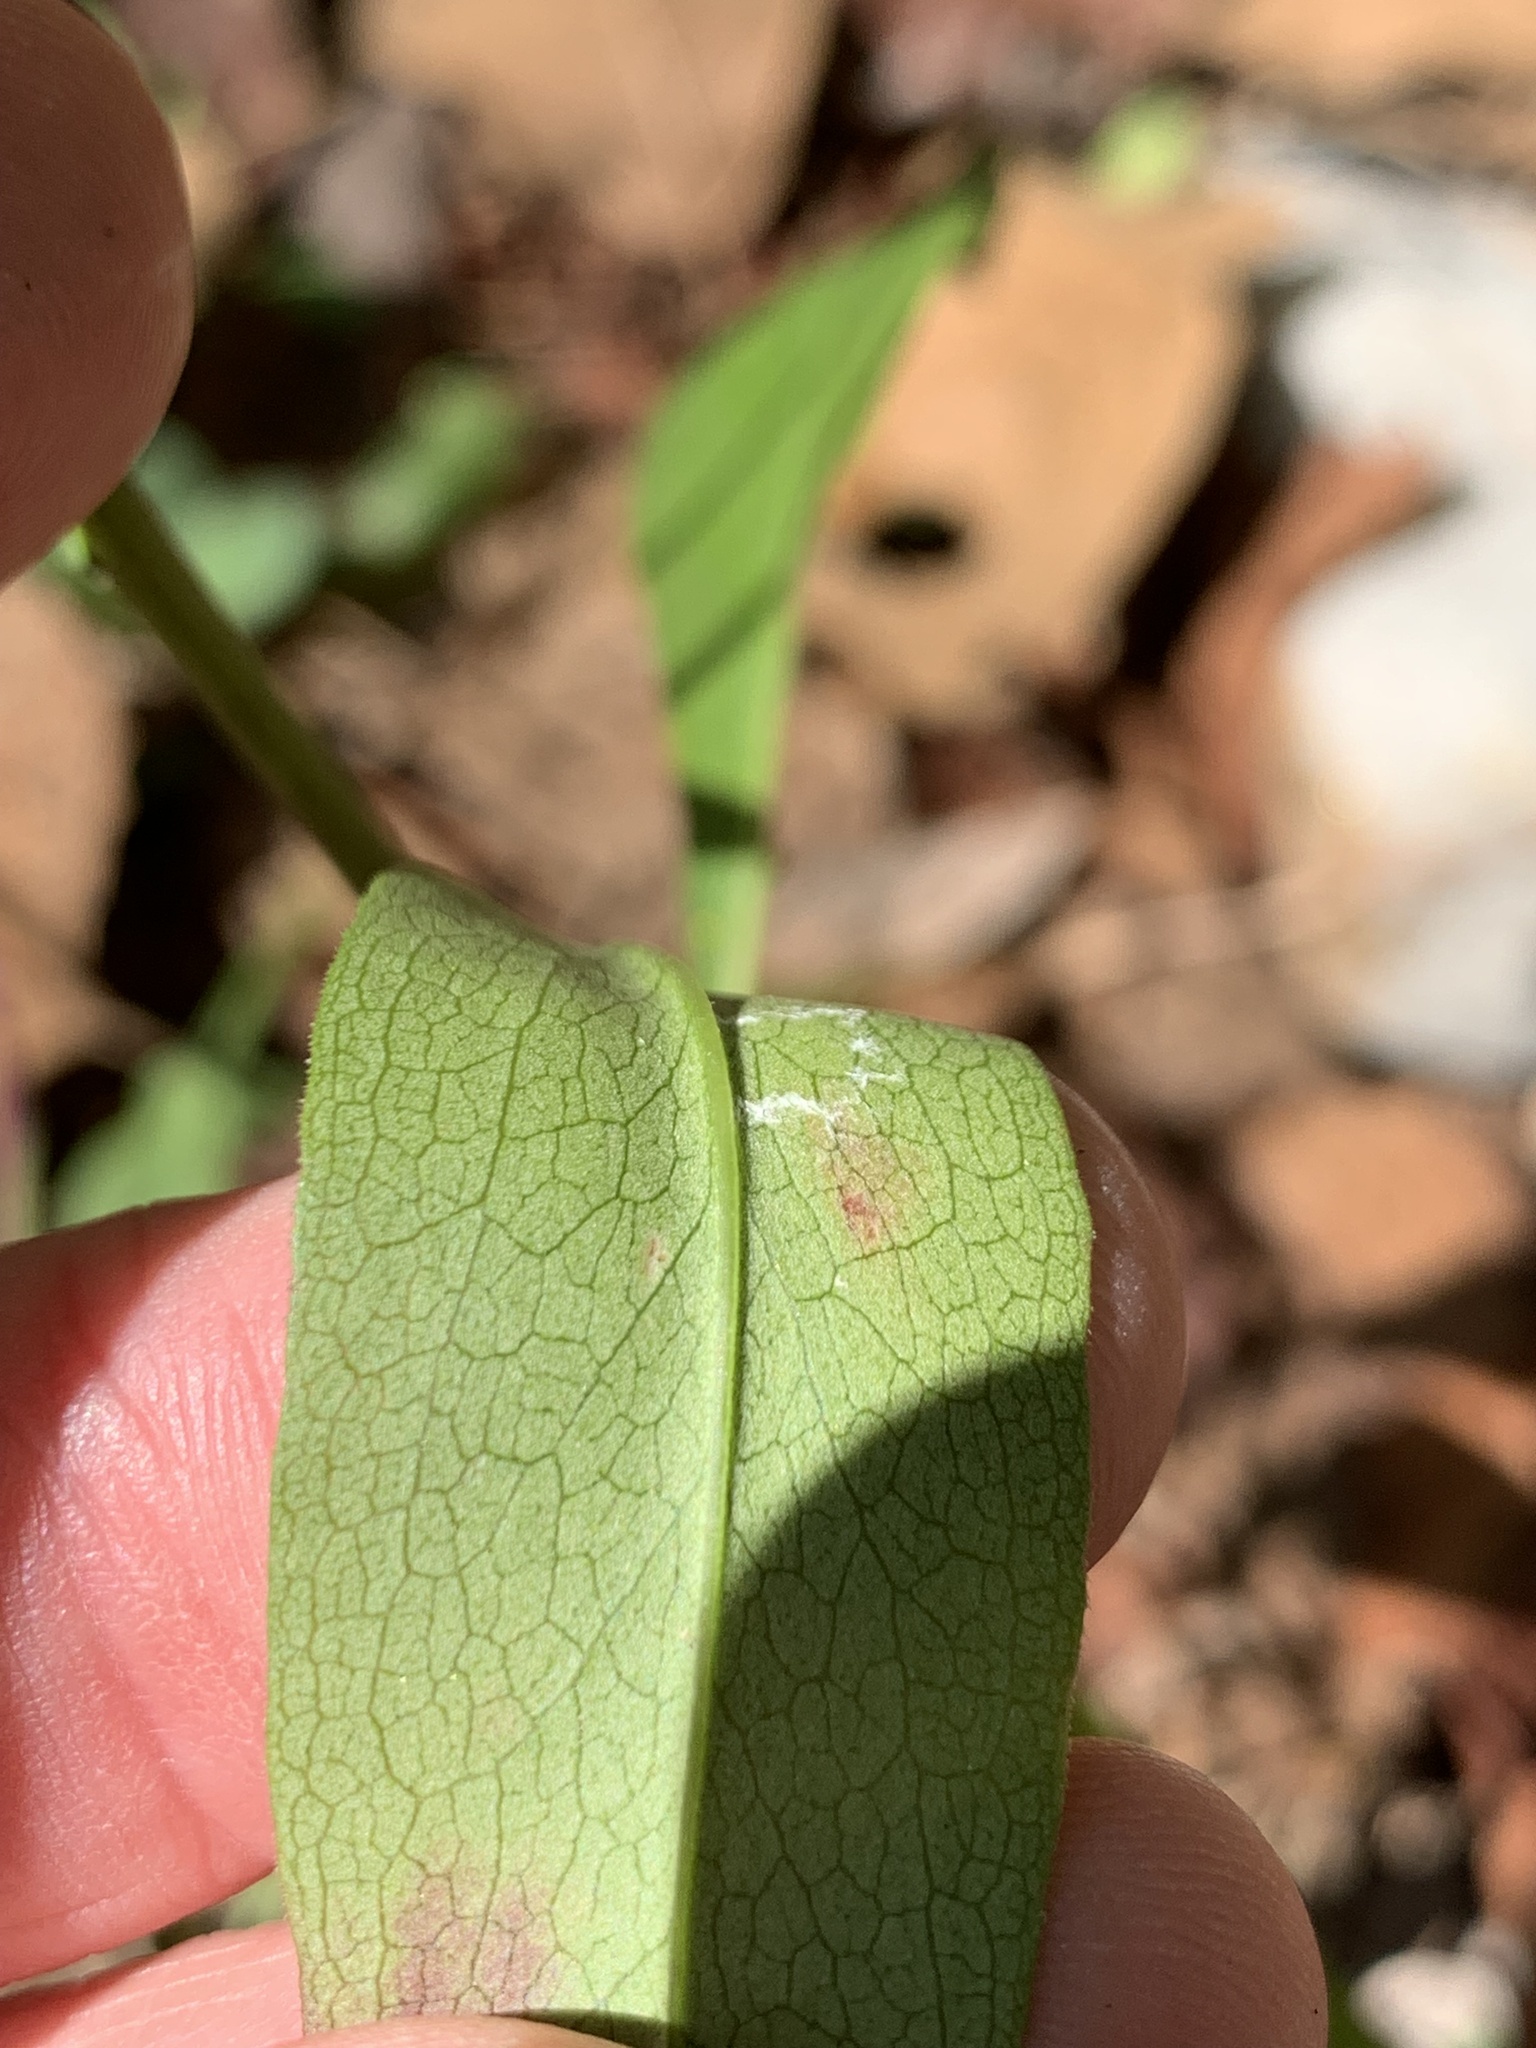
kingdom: Plantae
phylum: Tracheophyta
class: Magnoliopsida
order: Asterales
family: Asteraceae
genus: Solidago
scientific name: Solidago erecta
